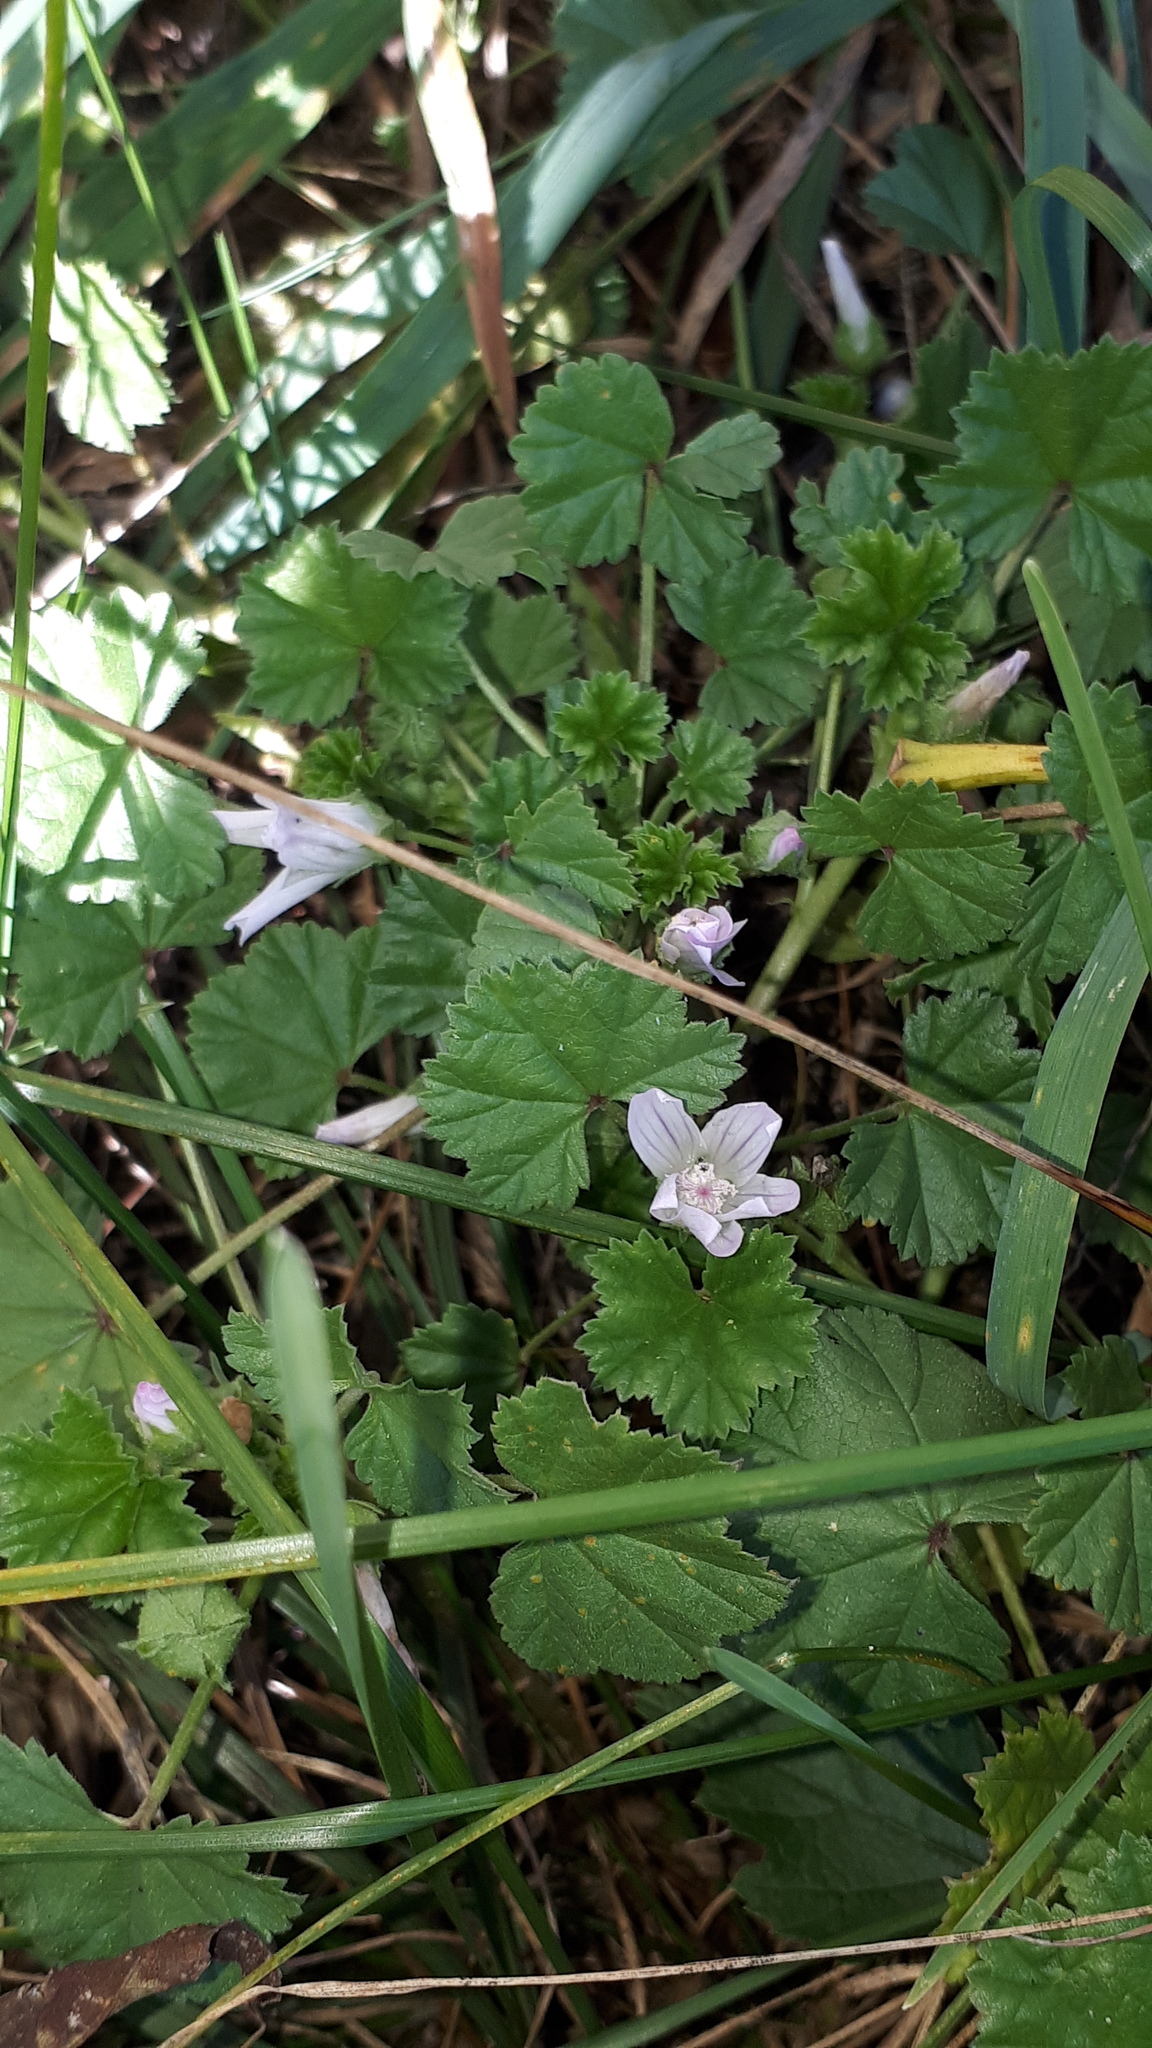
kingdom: Plantae
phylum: Tracheophyta
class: Magnoliopsida
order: Malvales
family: Malvaceae
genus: Malva
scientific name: Malva neglecta
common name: Common mallow
